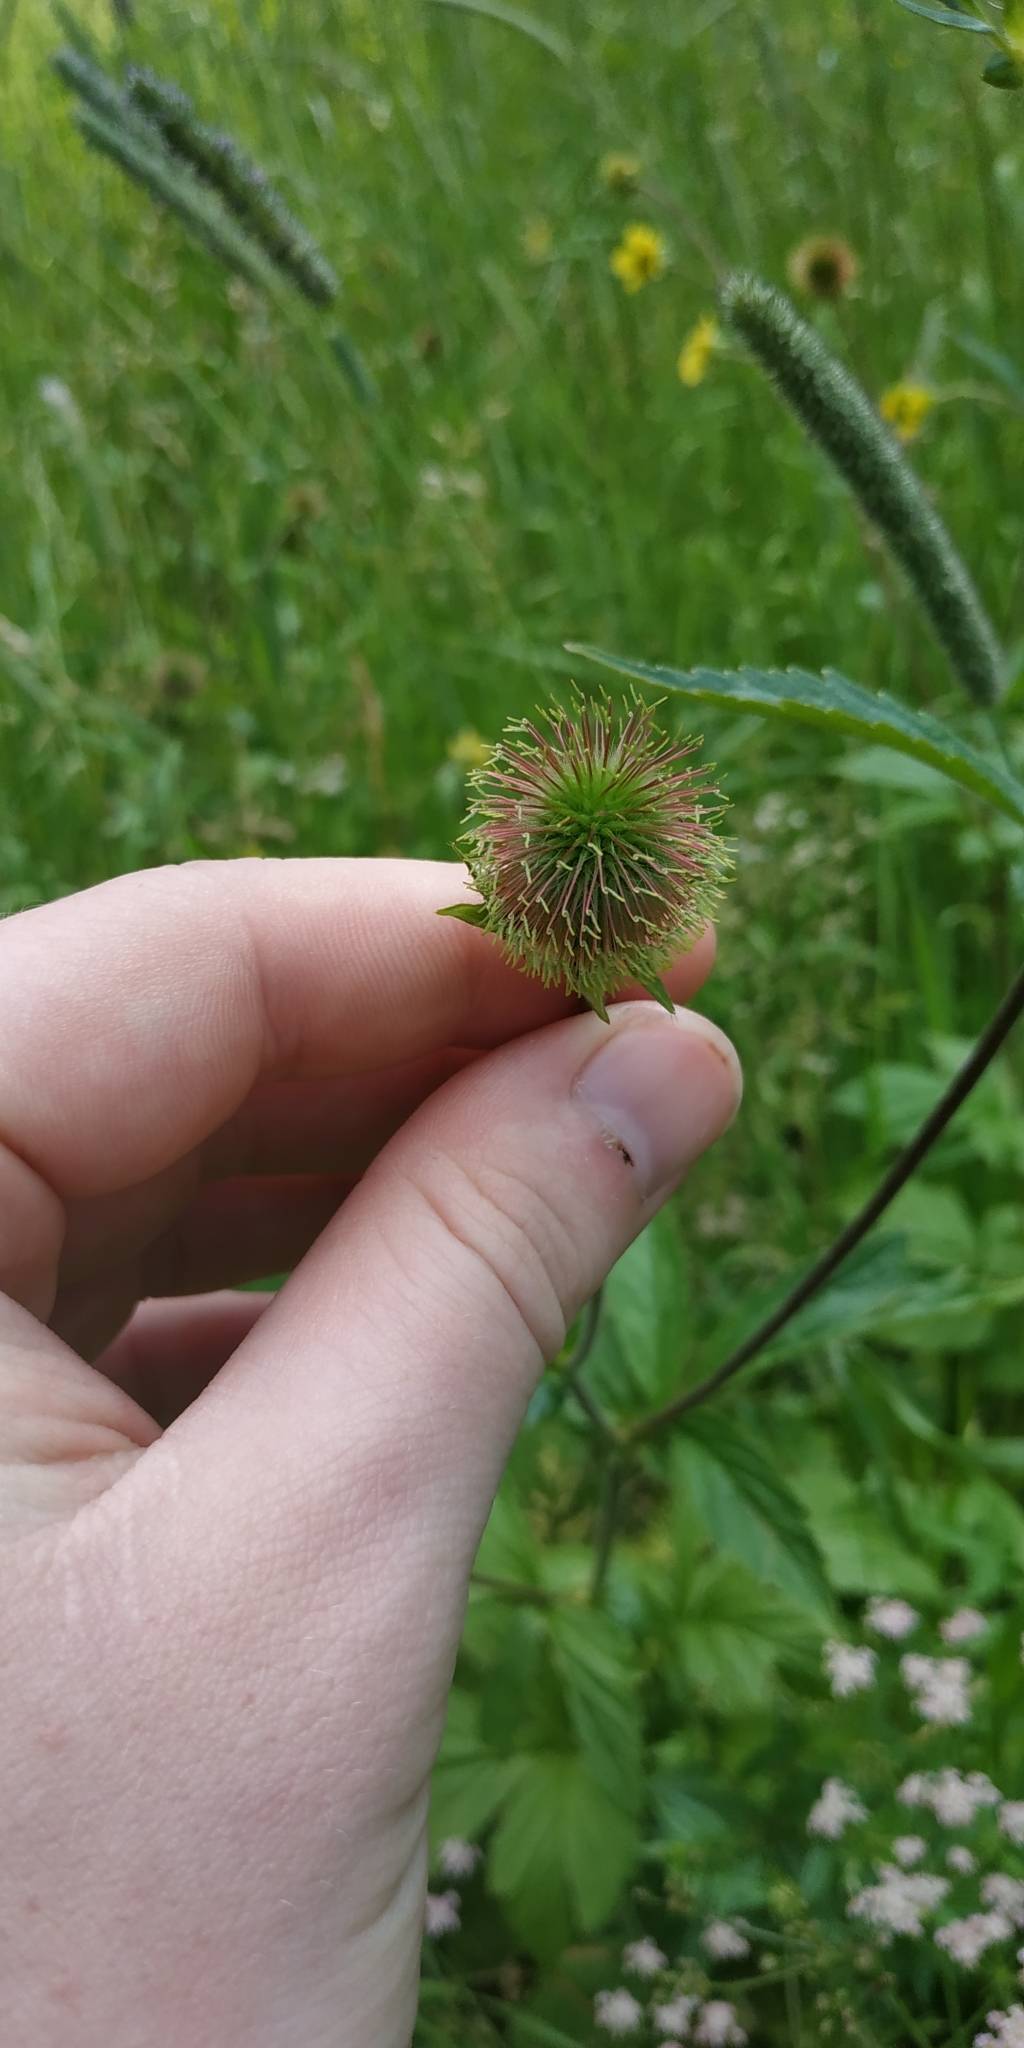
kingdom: Plantae
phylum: Tracheophyta
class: Magnoliopsida
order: Rosales
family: Rosaceae
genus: Geum
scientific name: Geum aleppicum
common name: Yellow avens
